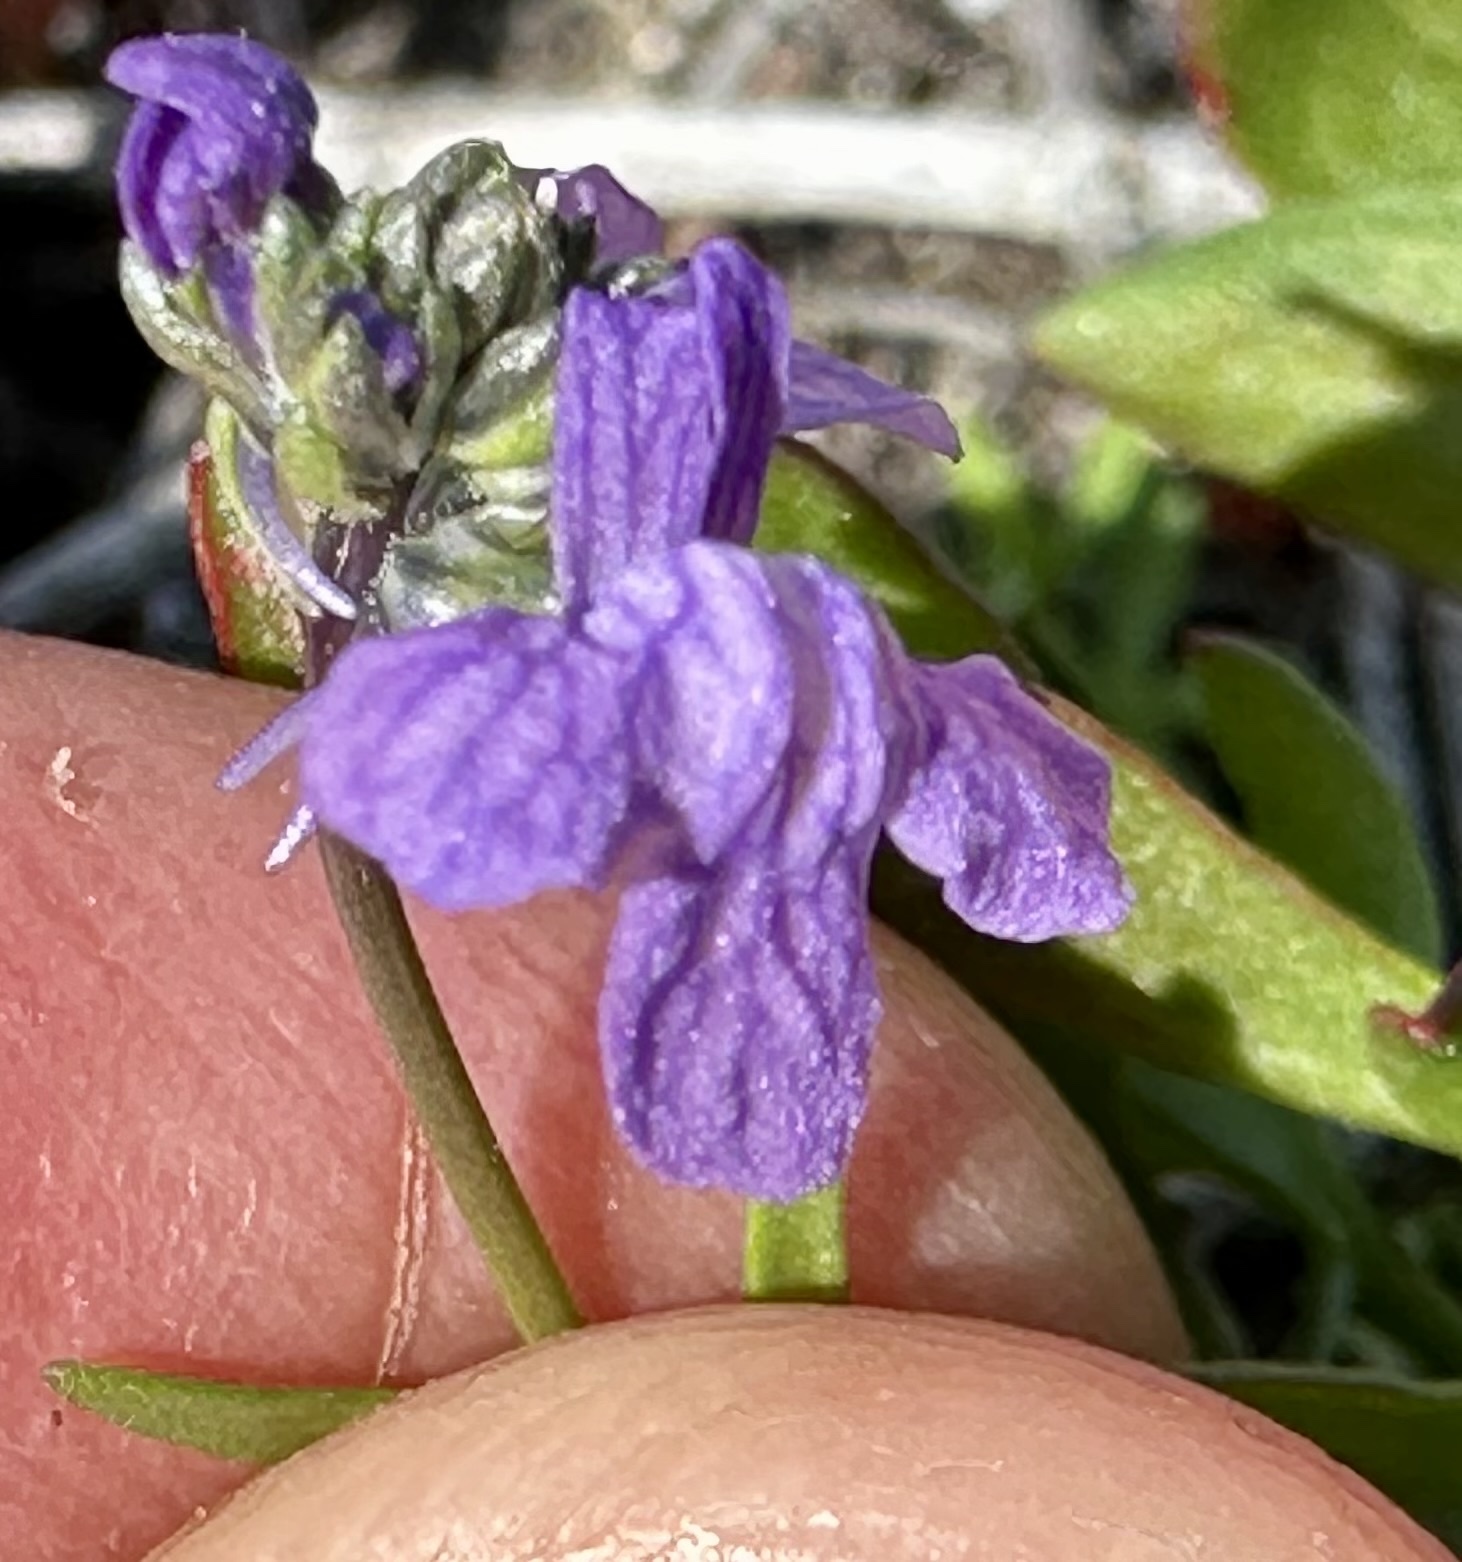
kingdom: Plantae
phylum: Tracheophyta
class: Magnoliopsida
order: Lamiales
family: Plantaginaceae
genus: Nuttallanthus
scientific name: Nuttallanthus texanus
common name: Texas toadflax
